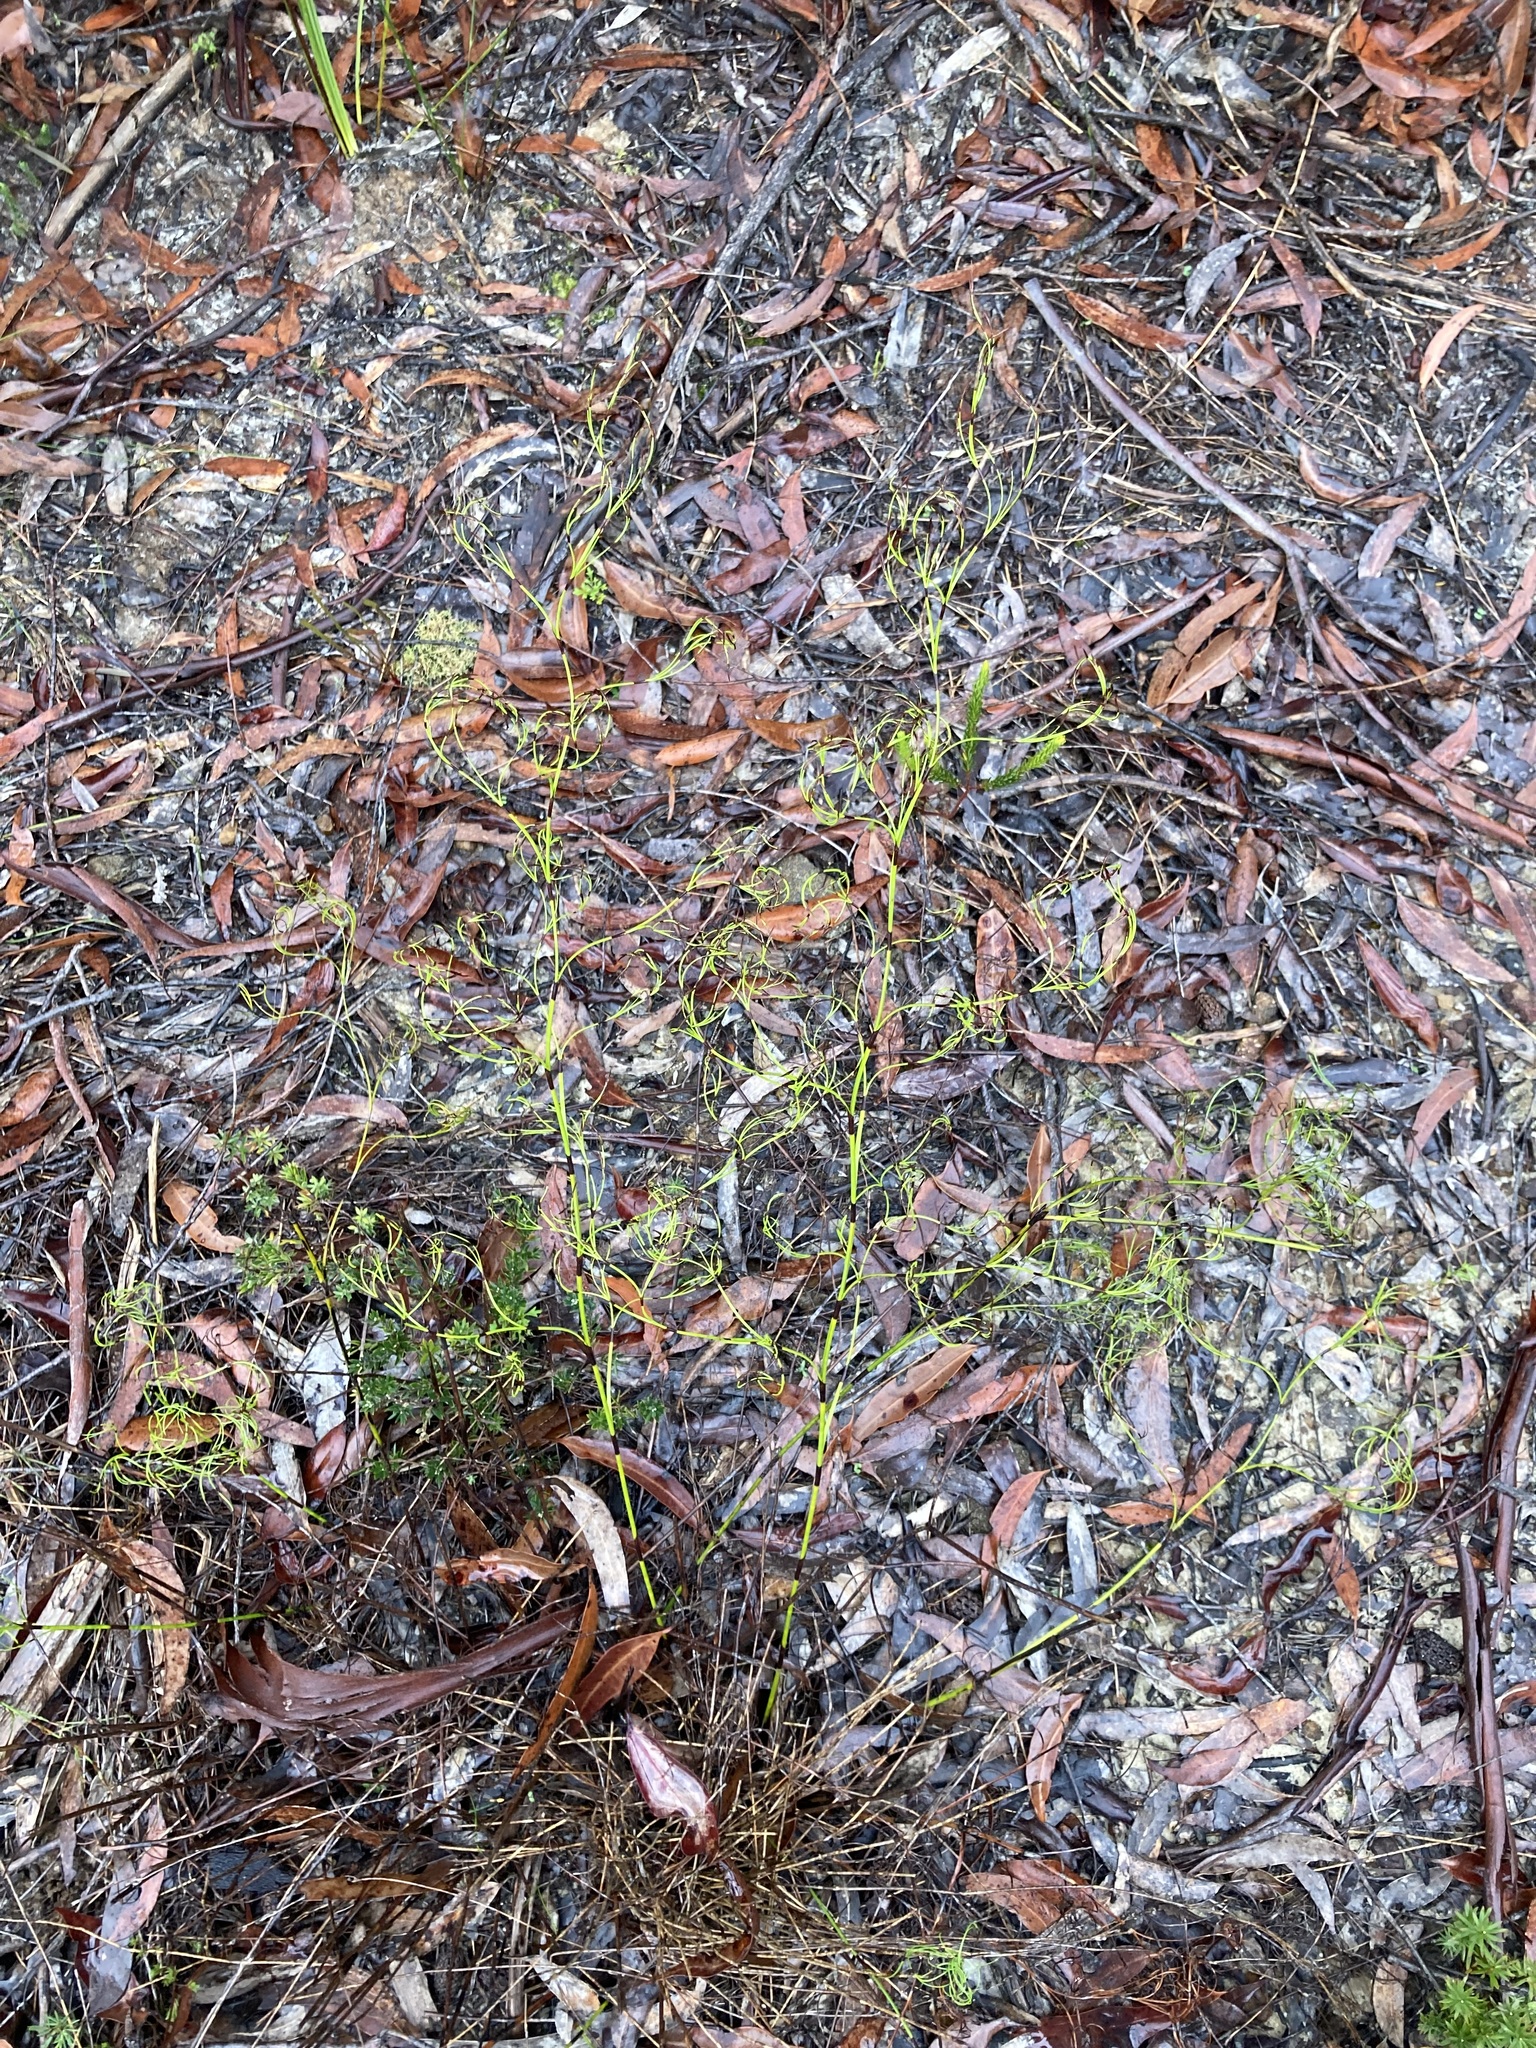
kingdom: Plantae
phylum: Tracheophyta
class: Liliopsida
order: Poales
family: Cyperaceae
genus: Caustis
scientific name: Caustis flexuosa
